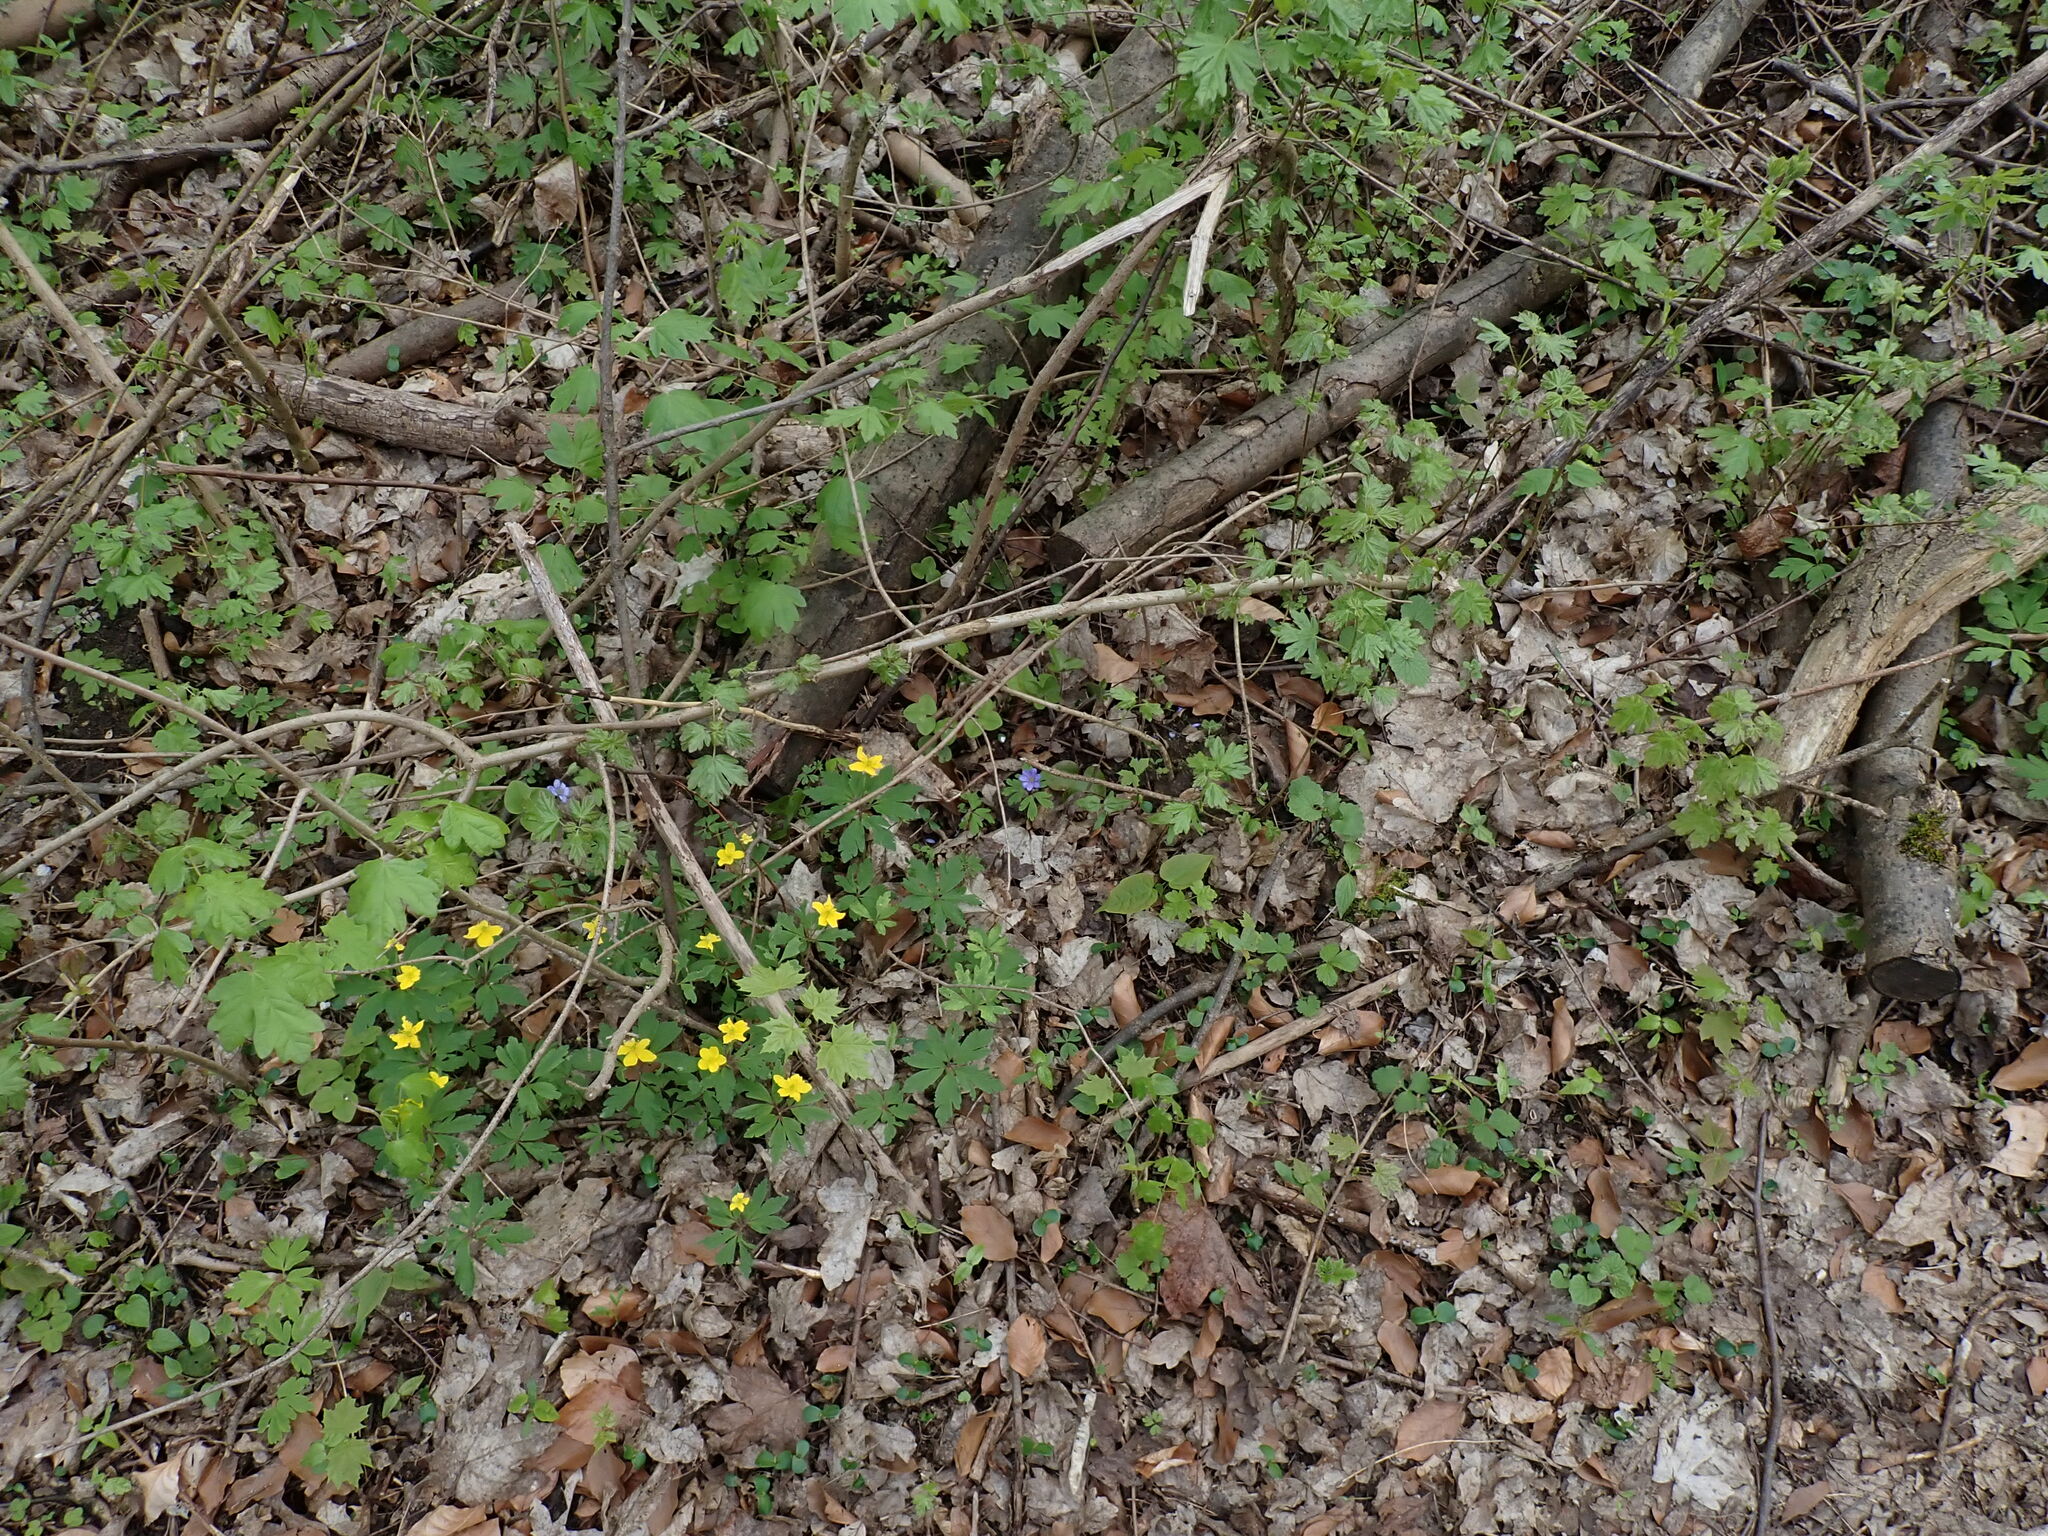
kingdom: Plantae
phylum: Tracheophyta
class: Magnoliopsida
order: Ranunculales
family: Ranunculaceae
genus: Hepatica
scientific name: Hepatica nobilis
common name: Liverleaf
